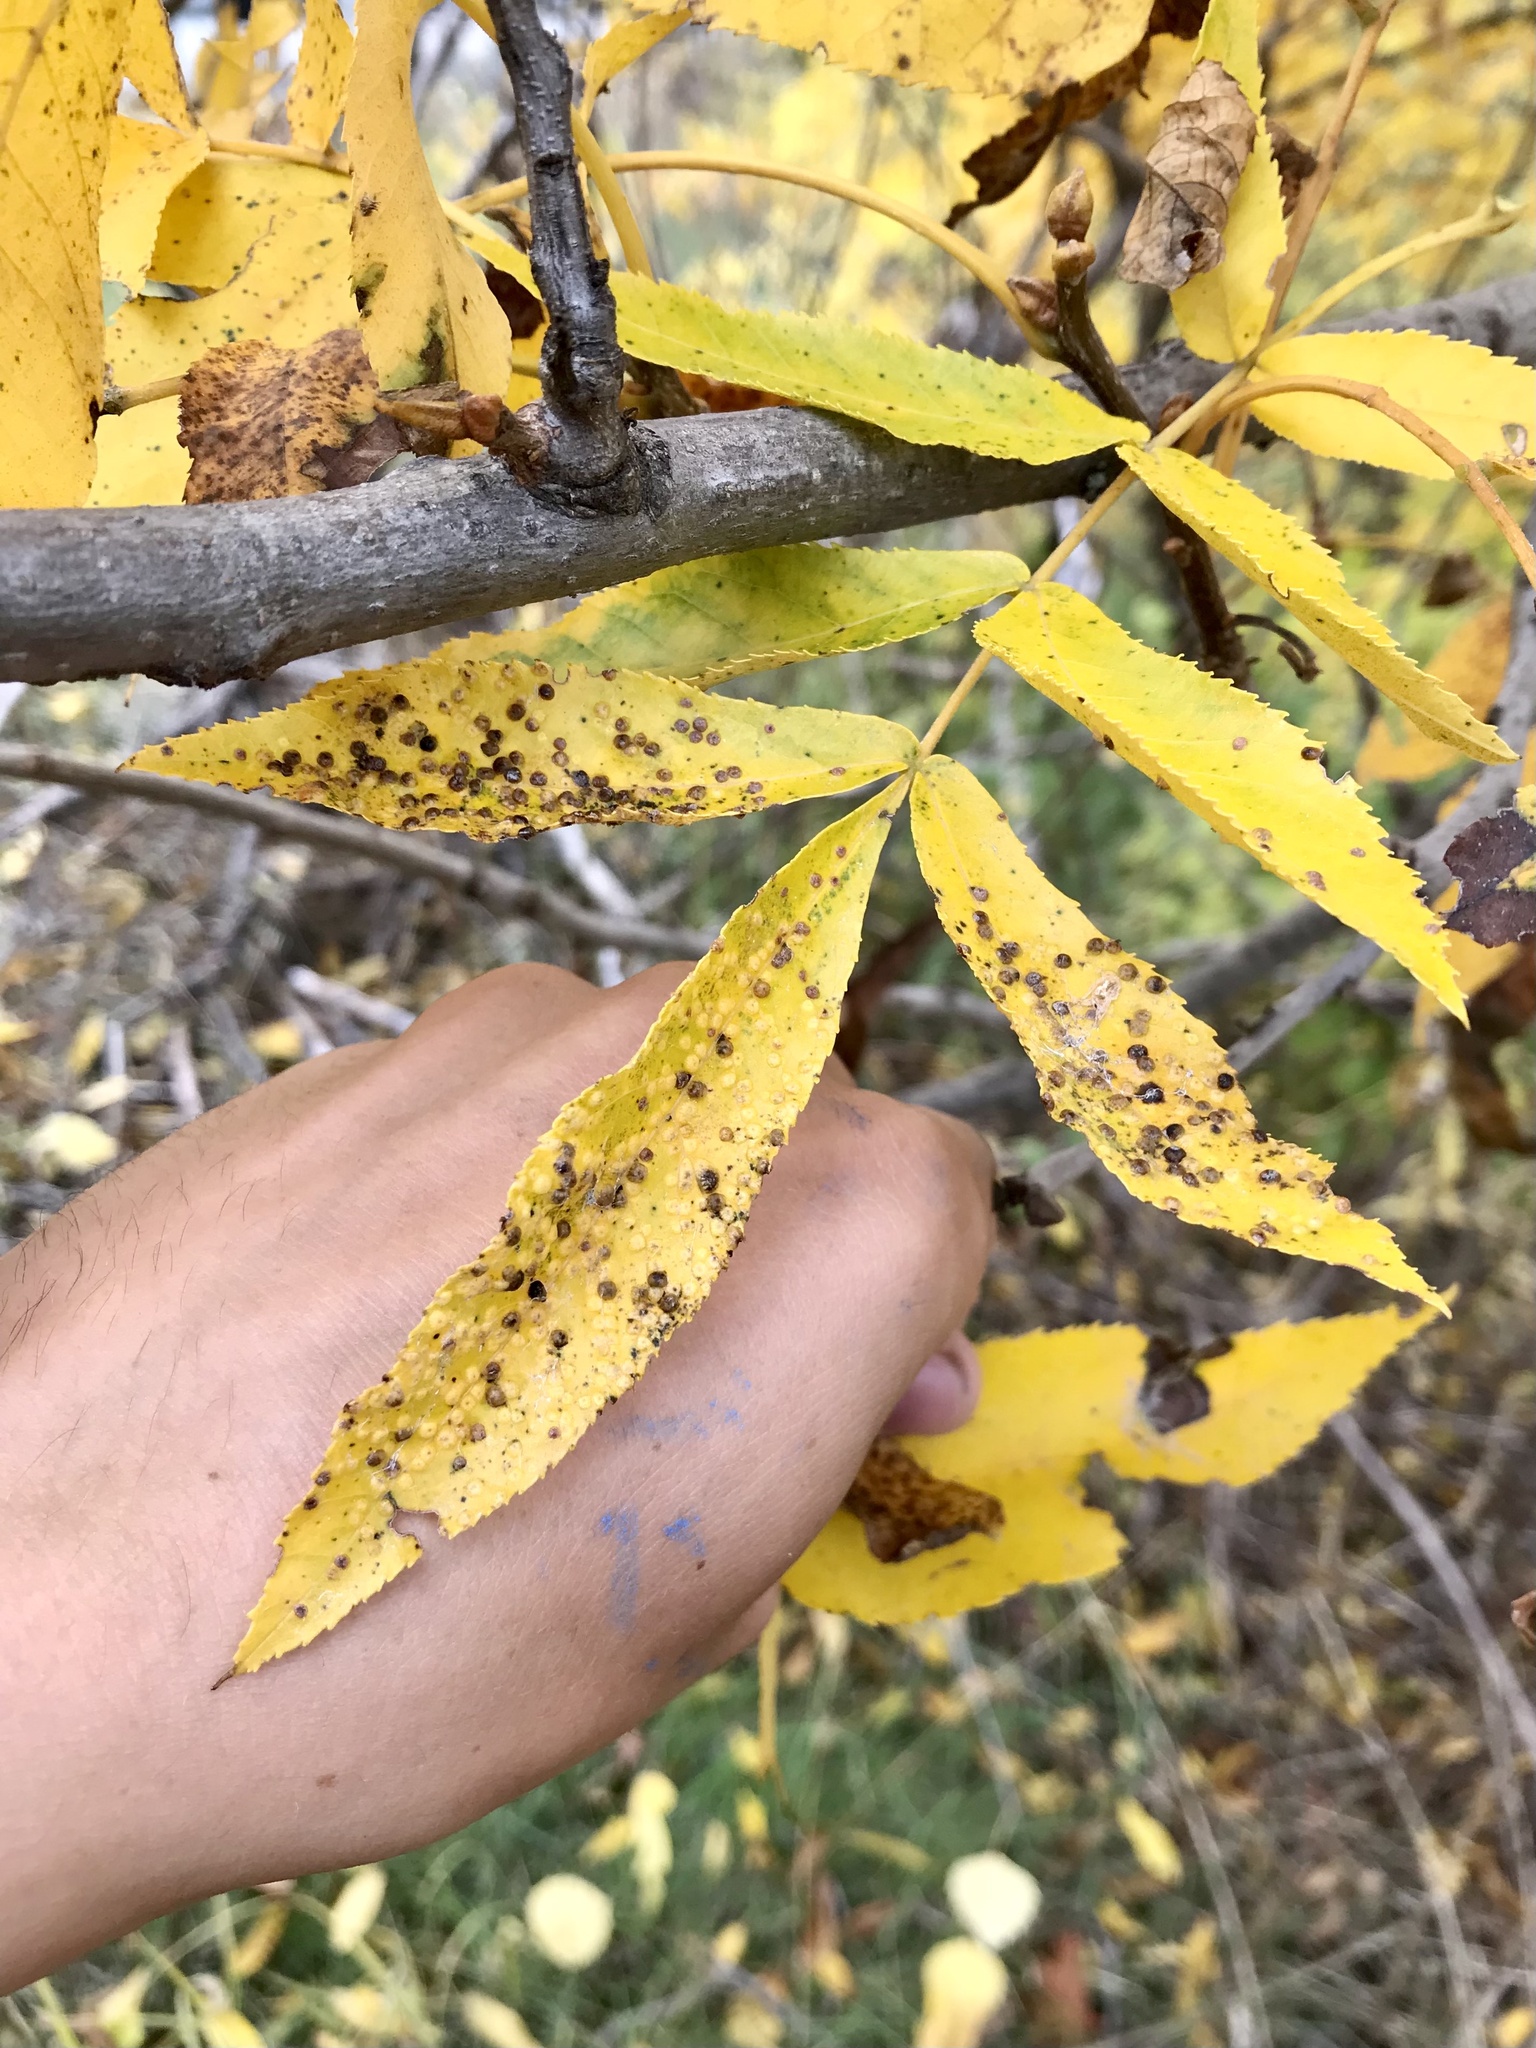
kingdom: Animalia
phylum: Arthropoda
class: Insecta
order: Hemiptera
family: Phylloxeridae
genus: Phylloxera
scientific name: Phylloxera caryae-semen
